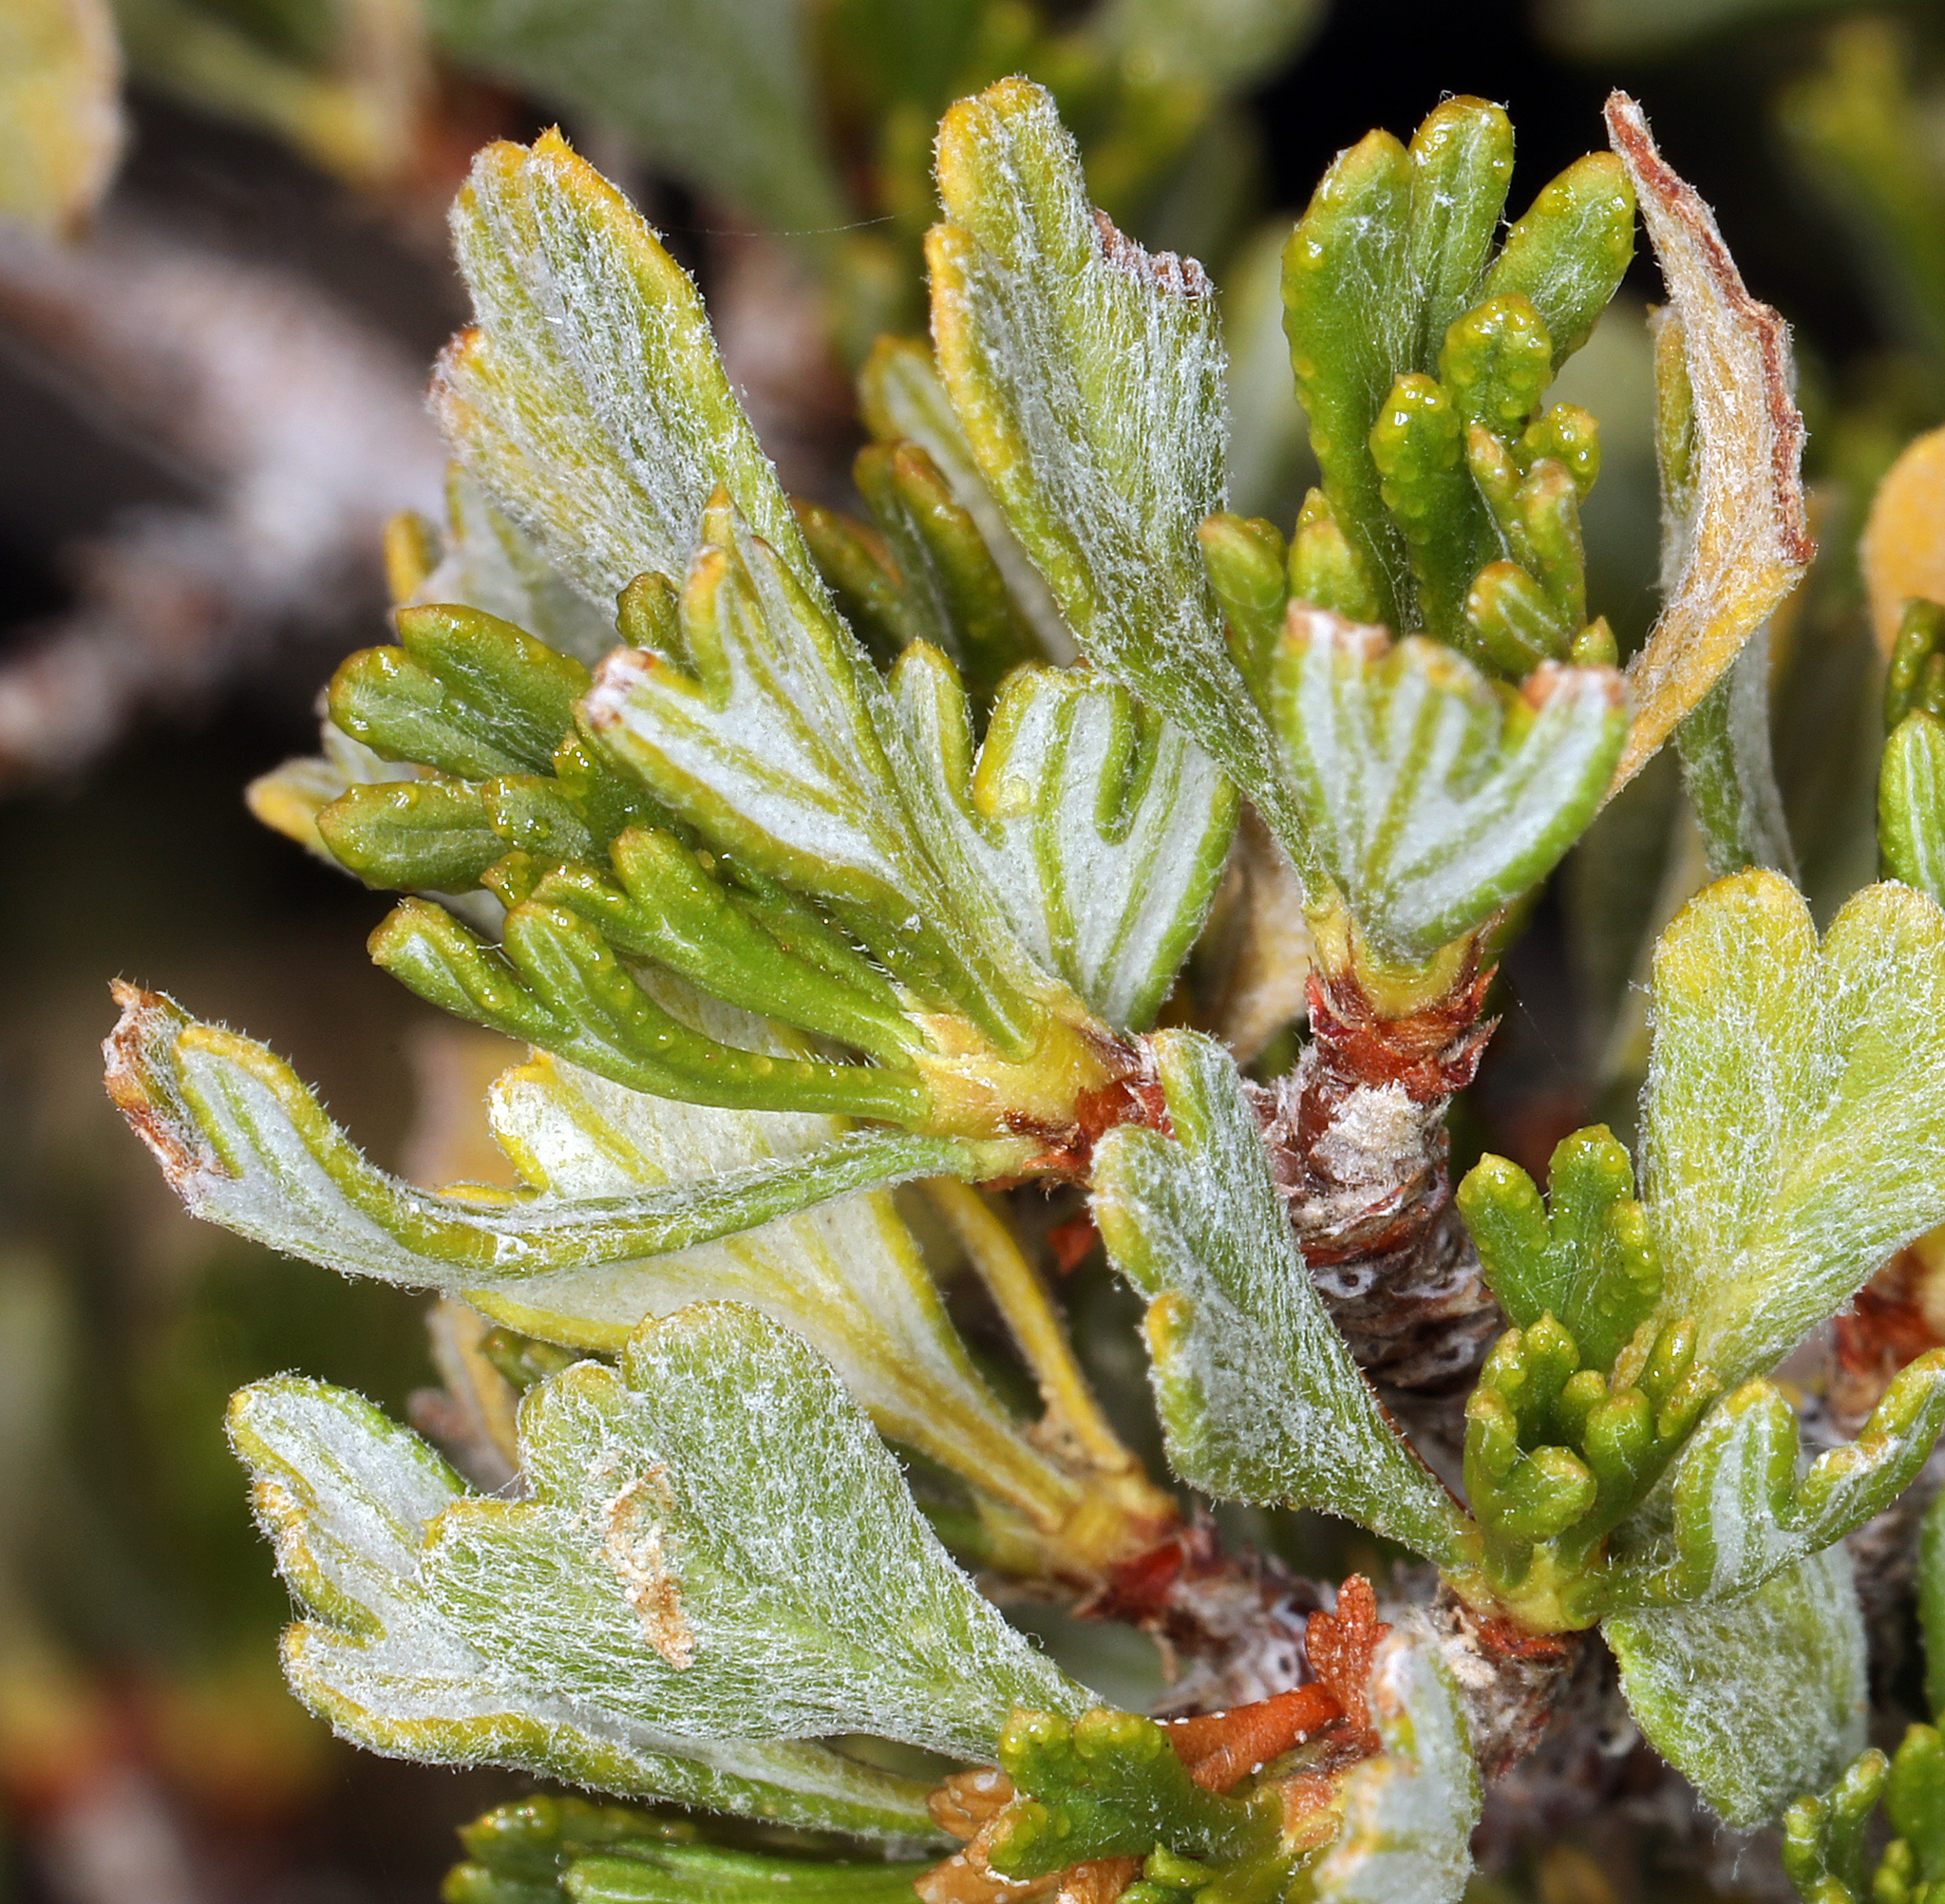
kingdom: Plantae
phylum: Tracheophyta
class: Magnoliopsida
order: Rosales
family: Rosaceae
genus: Purshia
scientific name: Purshia tridentata
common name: Antelope bitterbrush
